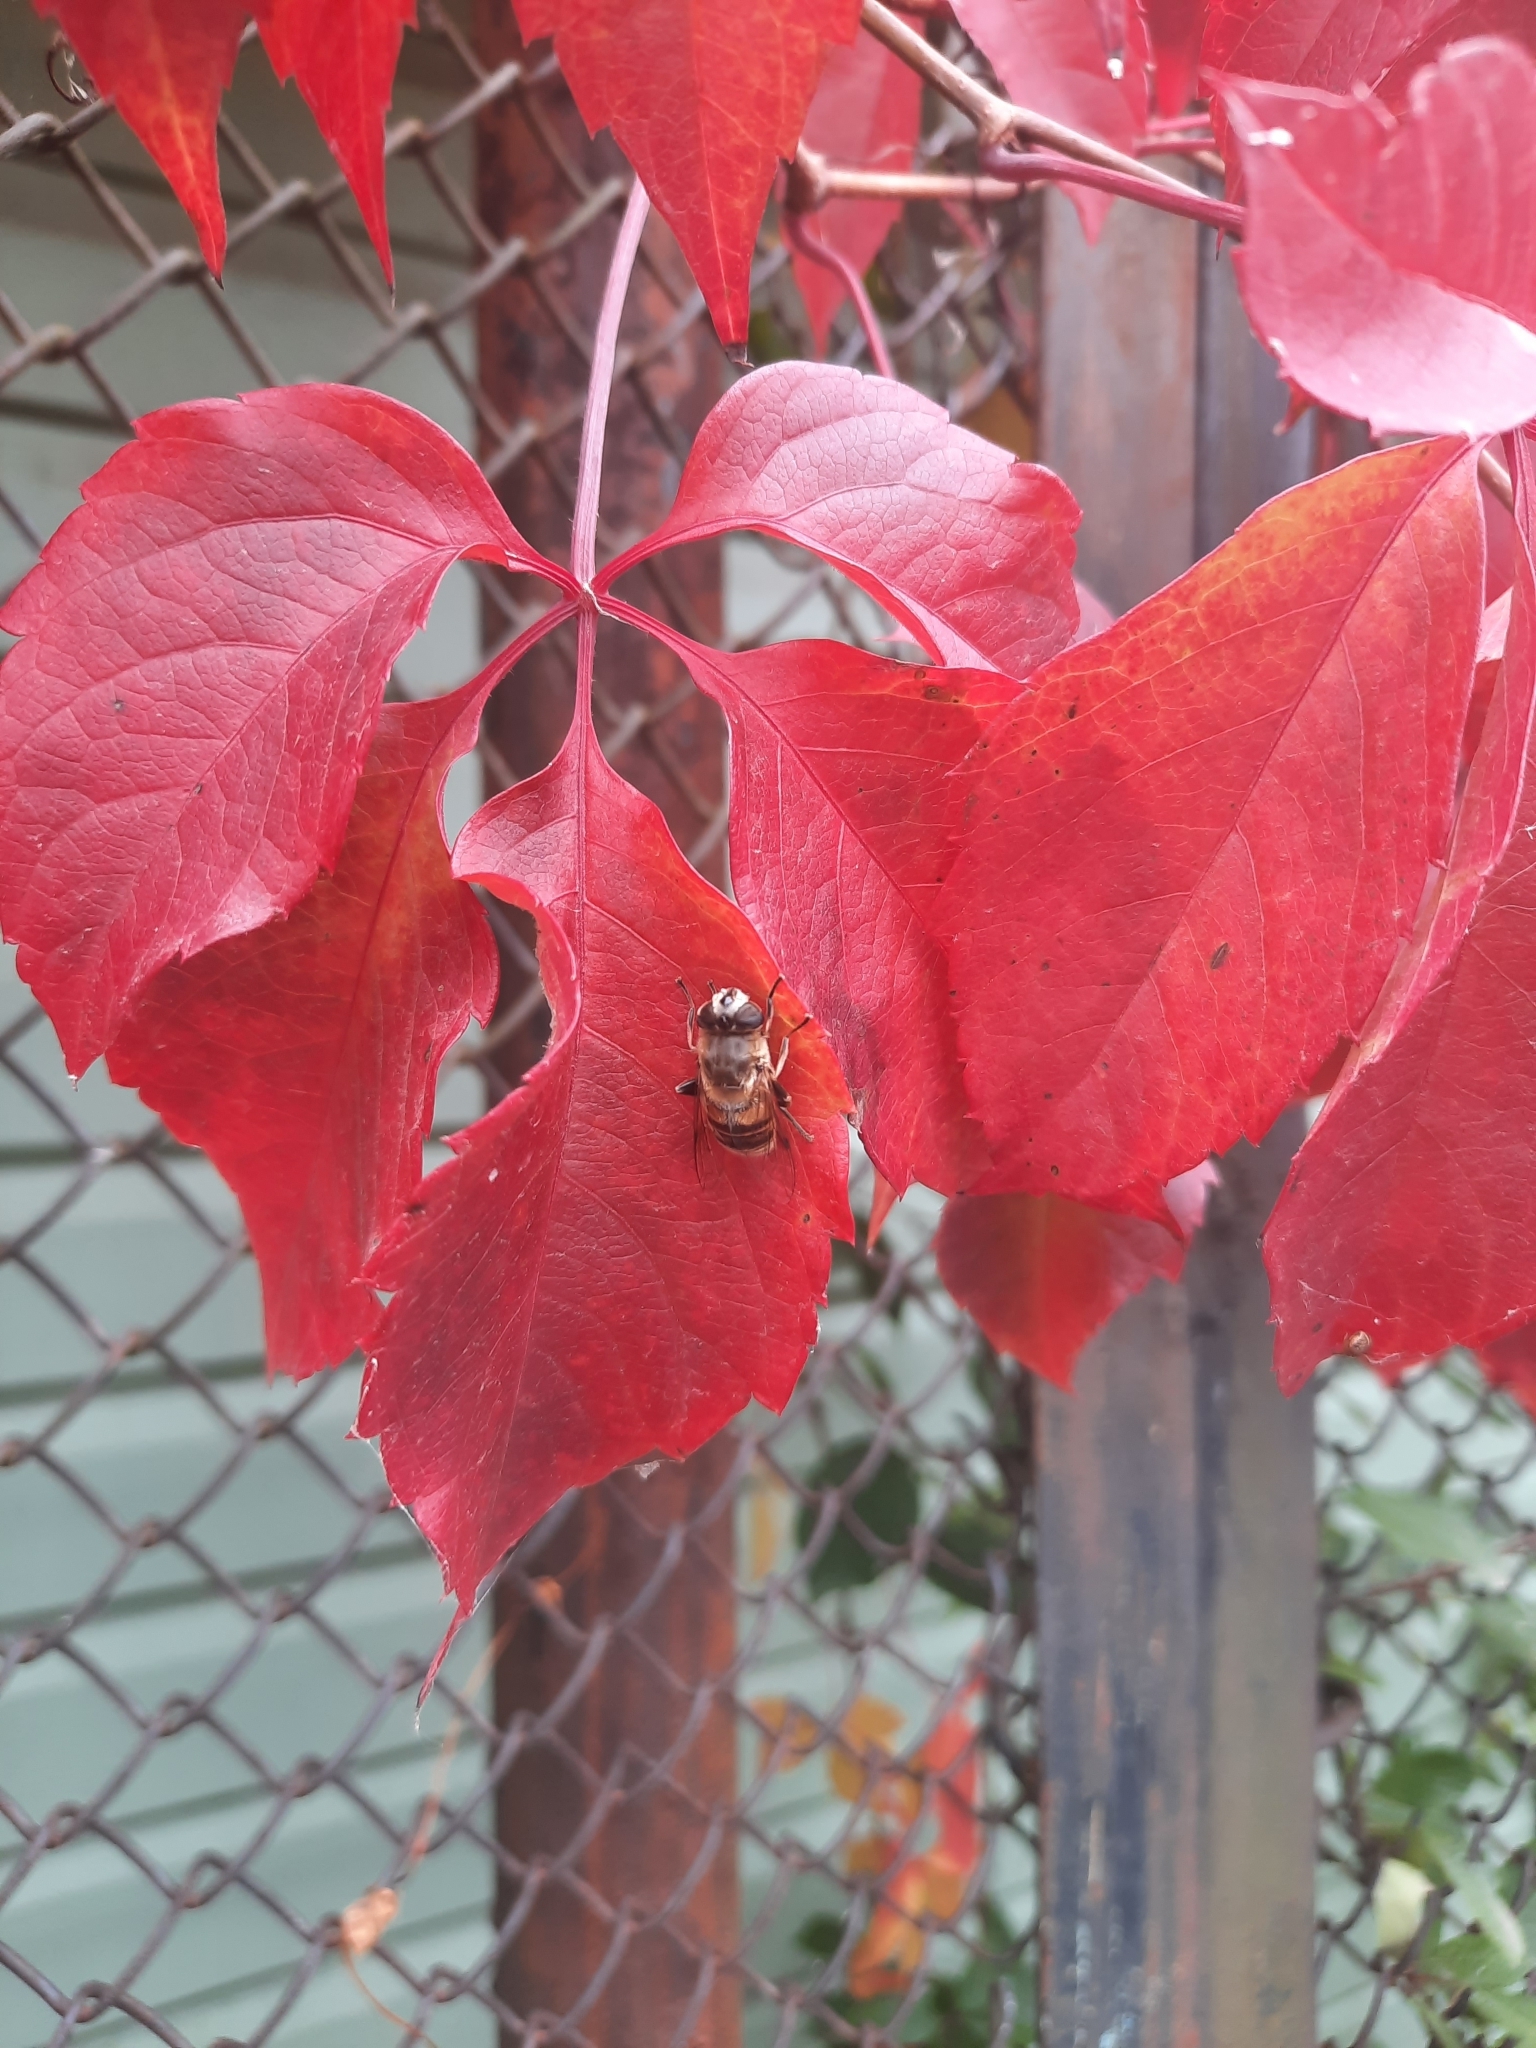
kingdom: Animalia
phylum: Arthropoda
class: Insecta
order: Diptera
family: Syrphidae
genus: Eristalis
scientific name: Eristalis tenax
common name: Drone fly
